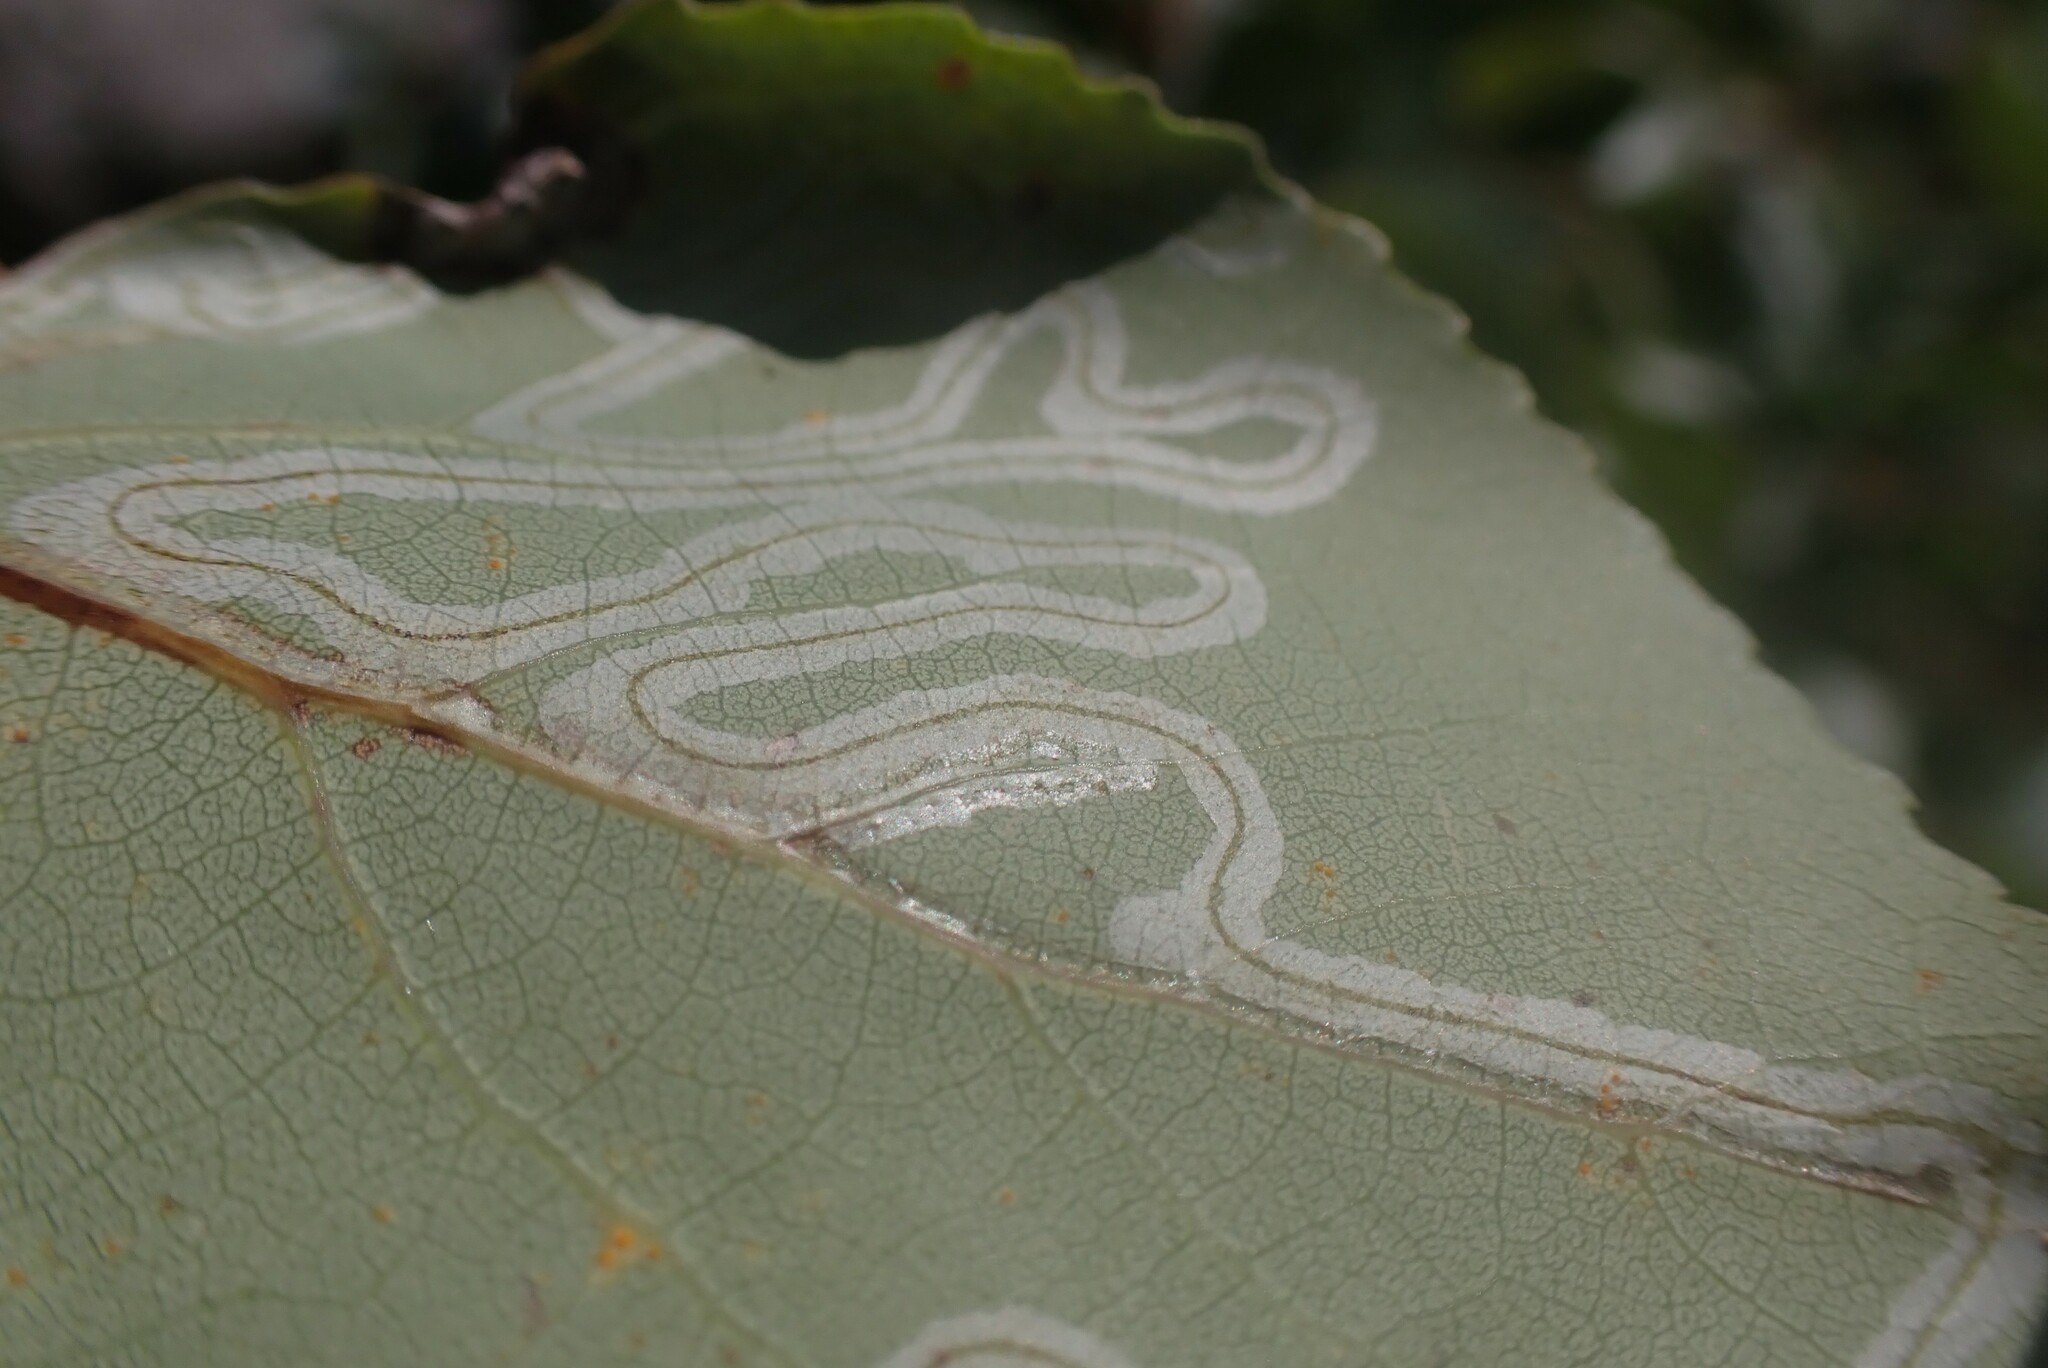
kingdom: Animalia
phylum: Arthropoda
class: Insecta
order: Lepidoptera
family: Gracillariidae
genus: Phyllocnistis
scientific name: Phyllocnistis populiella
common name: Aspen serpentine leafminer moth
